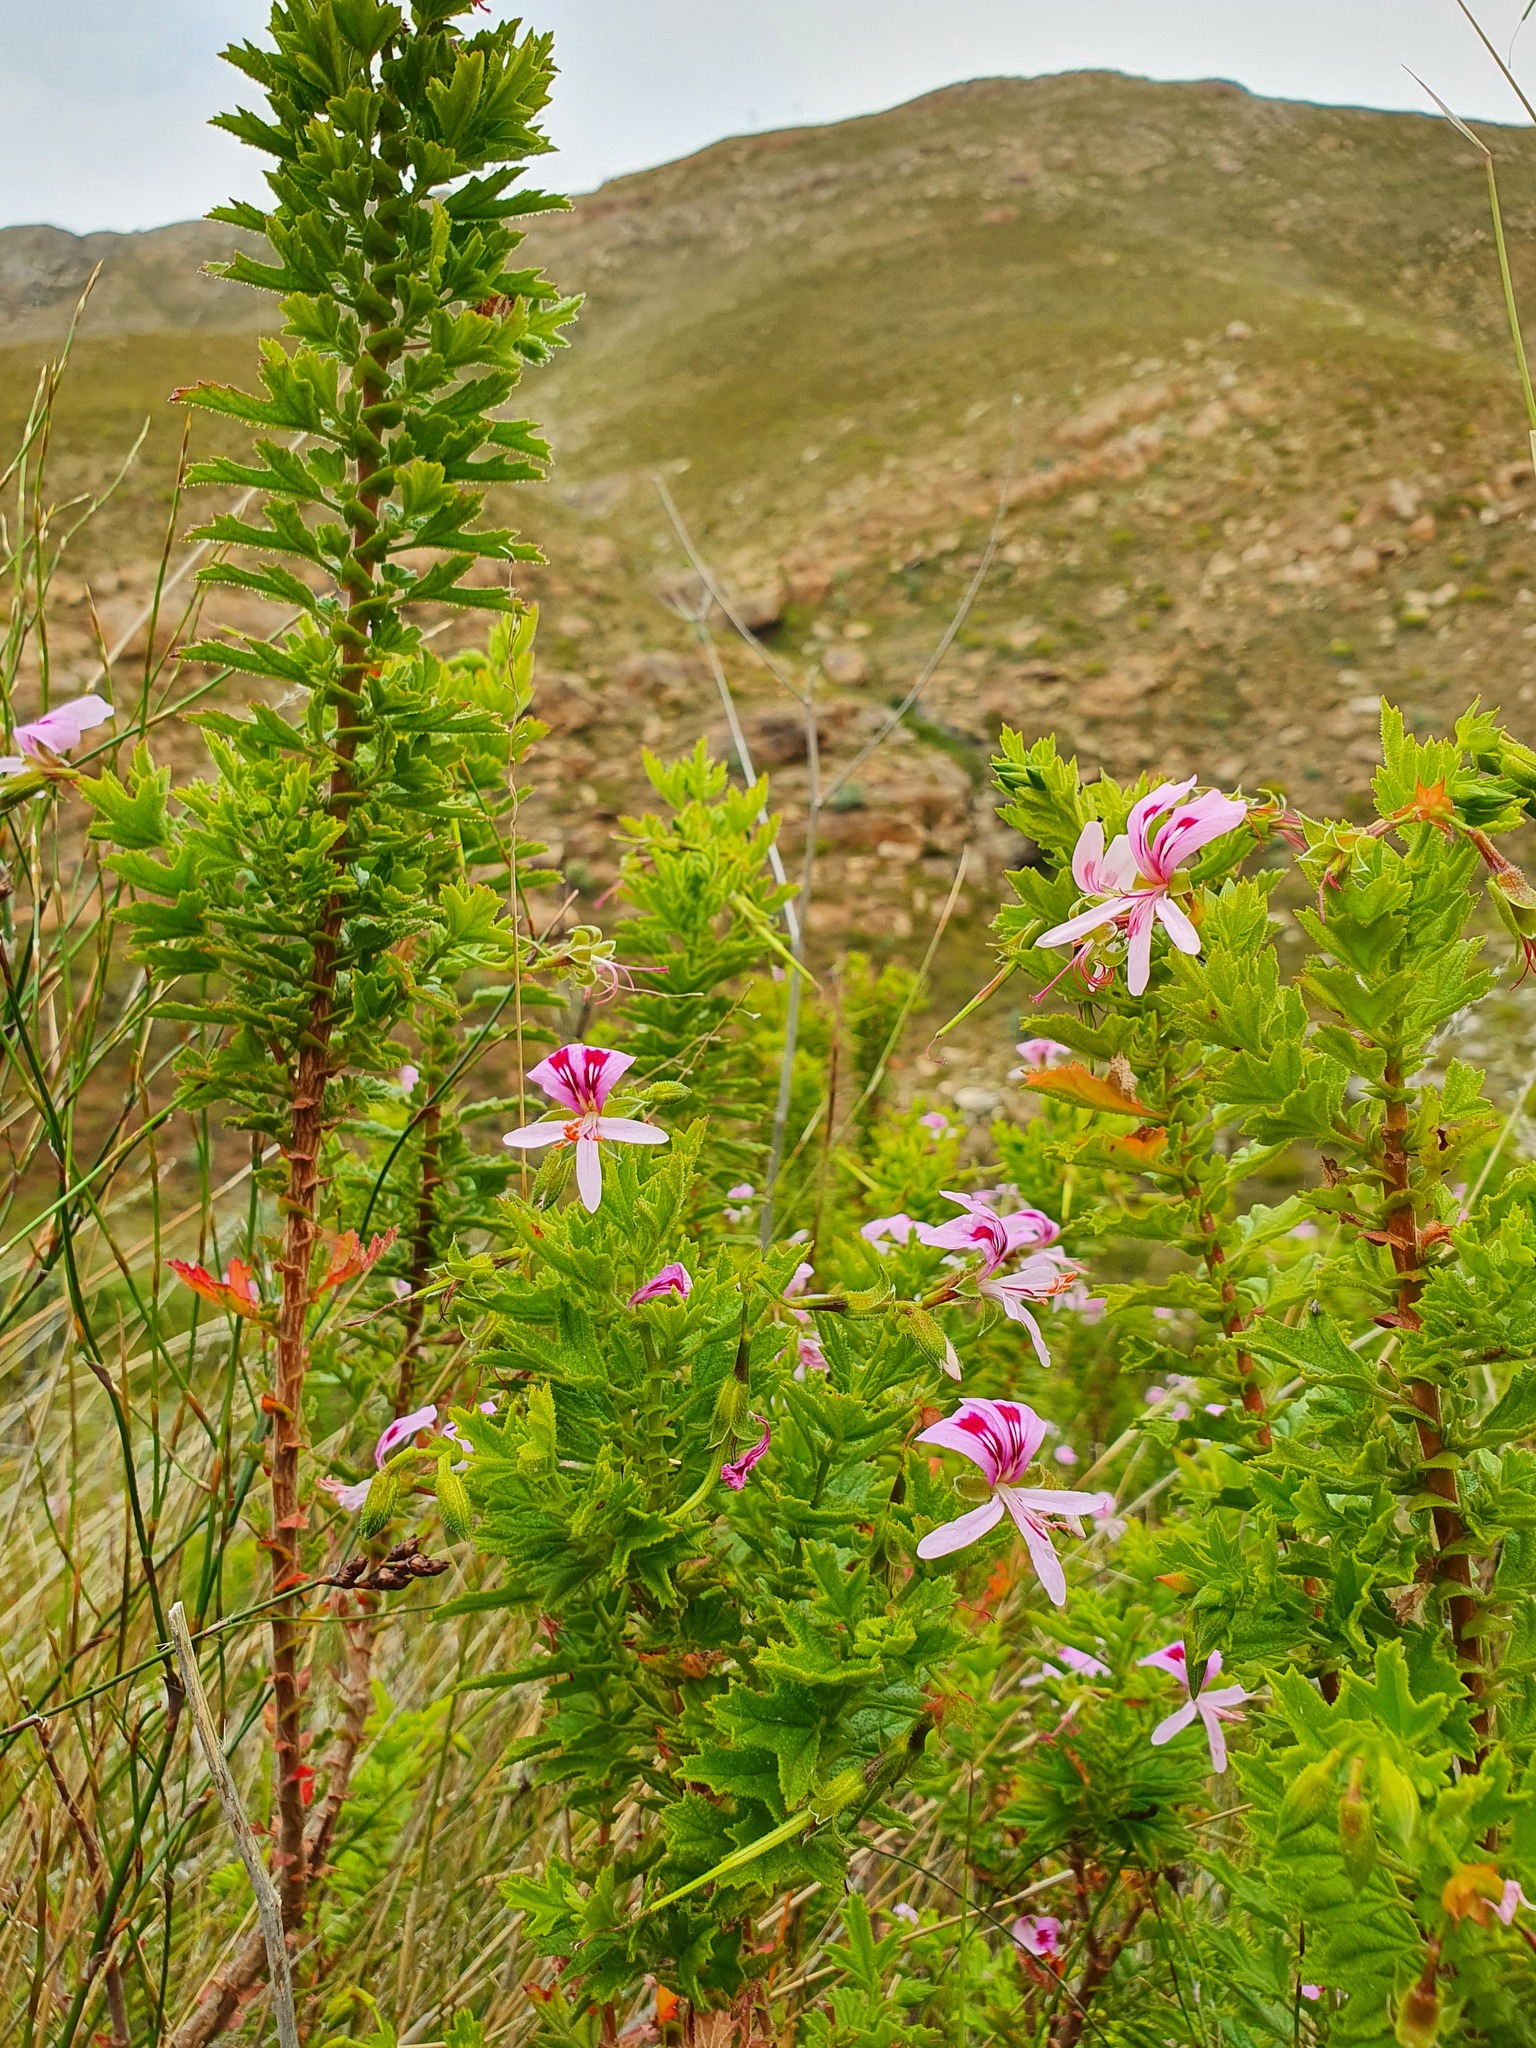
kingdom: Plantae
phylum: Tracheophyta
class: Magnoliopsida
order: Geraniales
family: Geraniaceae
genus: Pelargonium
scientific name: Pelargonium hermaniifolium
